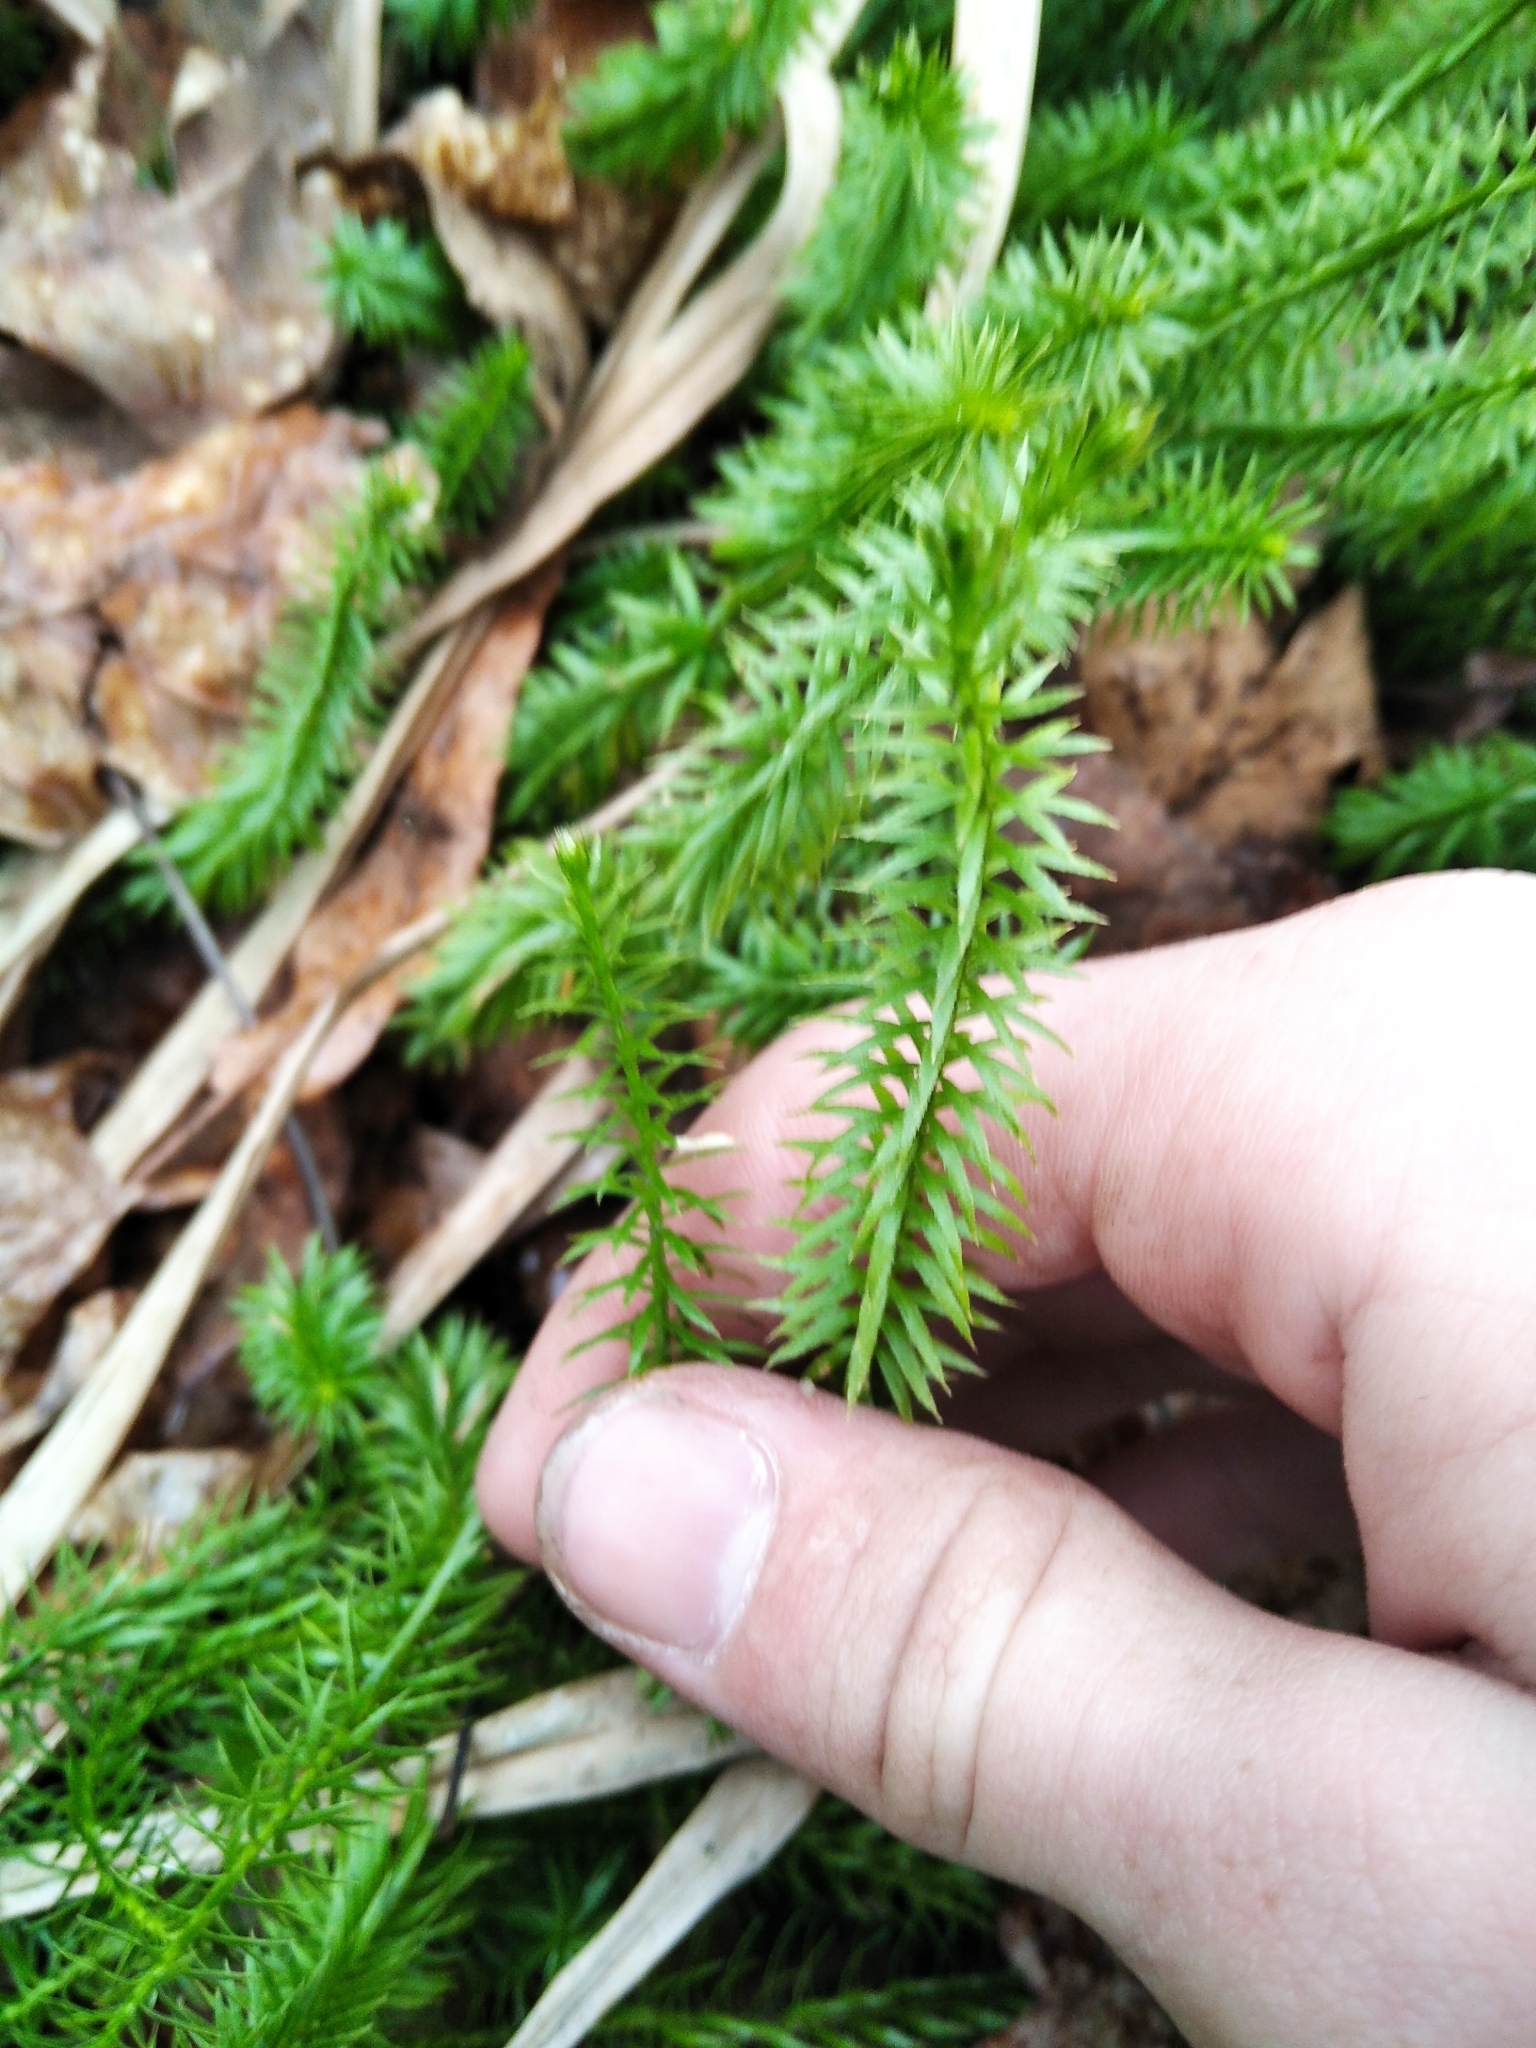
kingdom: Plantae
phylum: Tracheophyta
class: Lycopodiopsida
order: Lycopodiales
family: Lycopodiaceae
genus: Spinulum
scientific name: Spinulum annotinum
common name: Interrupted club-moss
